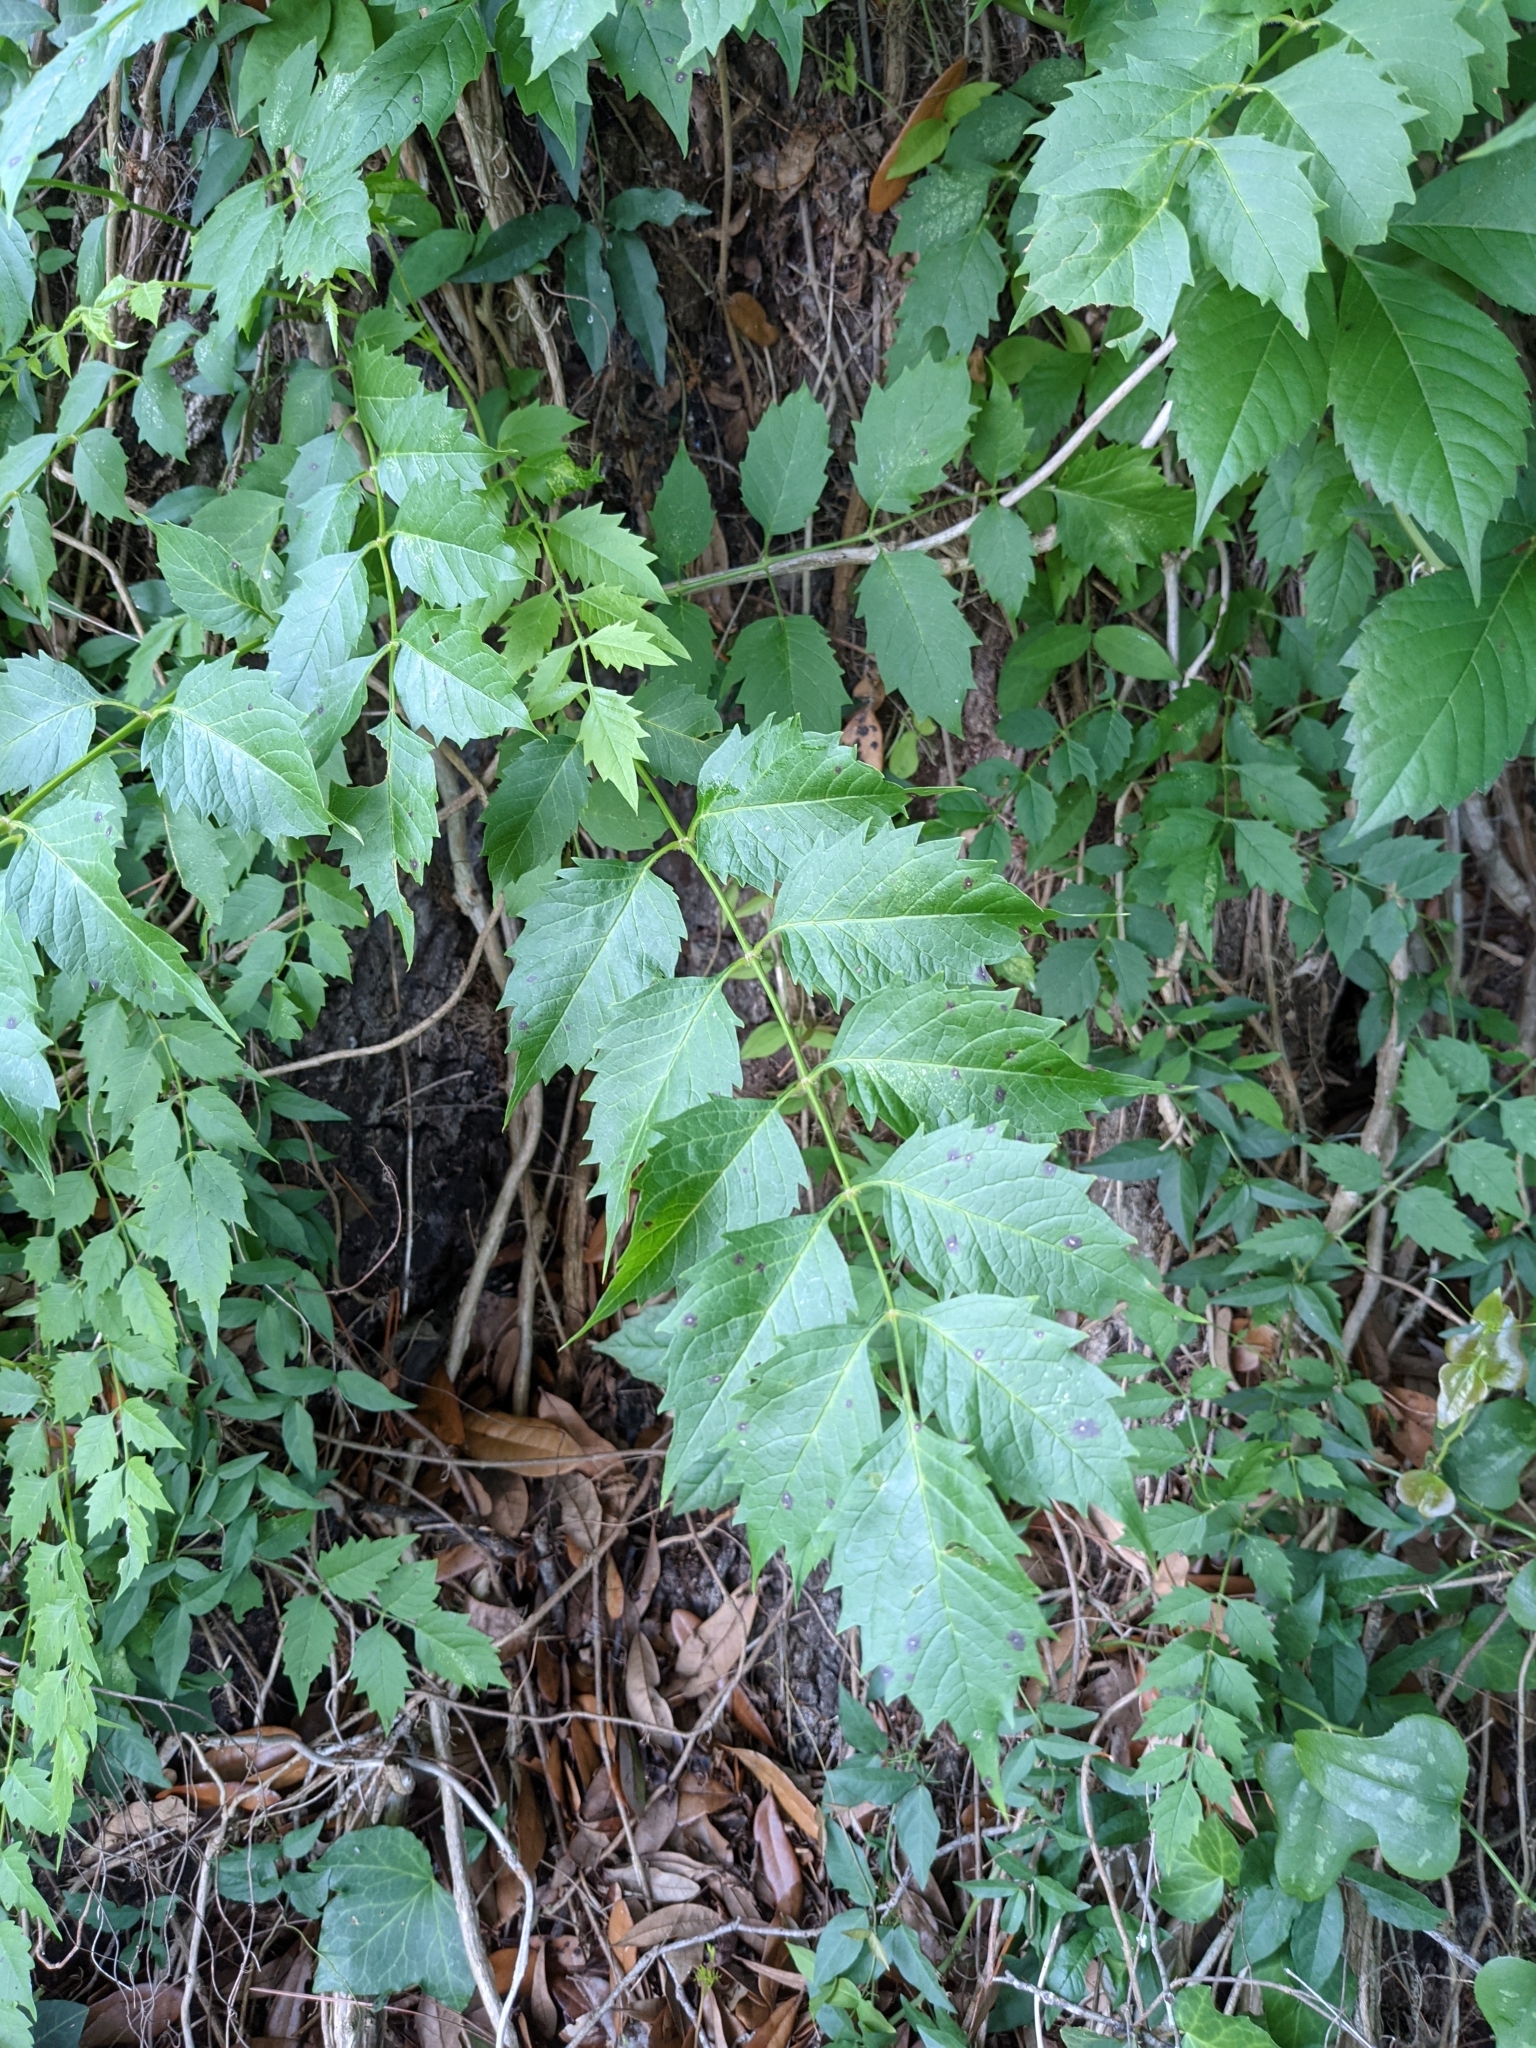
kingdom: Plantae
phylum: Tracheophyta
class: Magnoliopsida
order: Lamiales
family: Bignoniaceae
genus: Campsis
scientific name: Campsis radicans
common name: Trumpet-creeper
